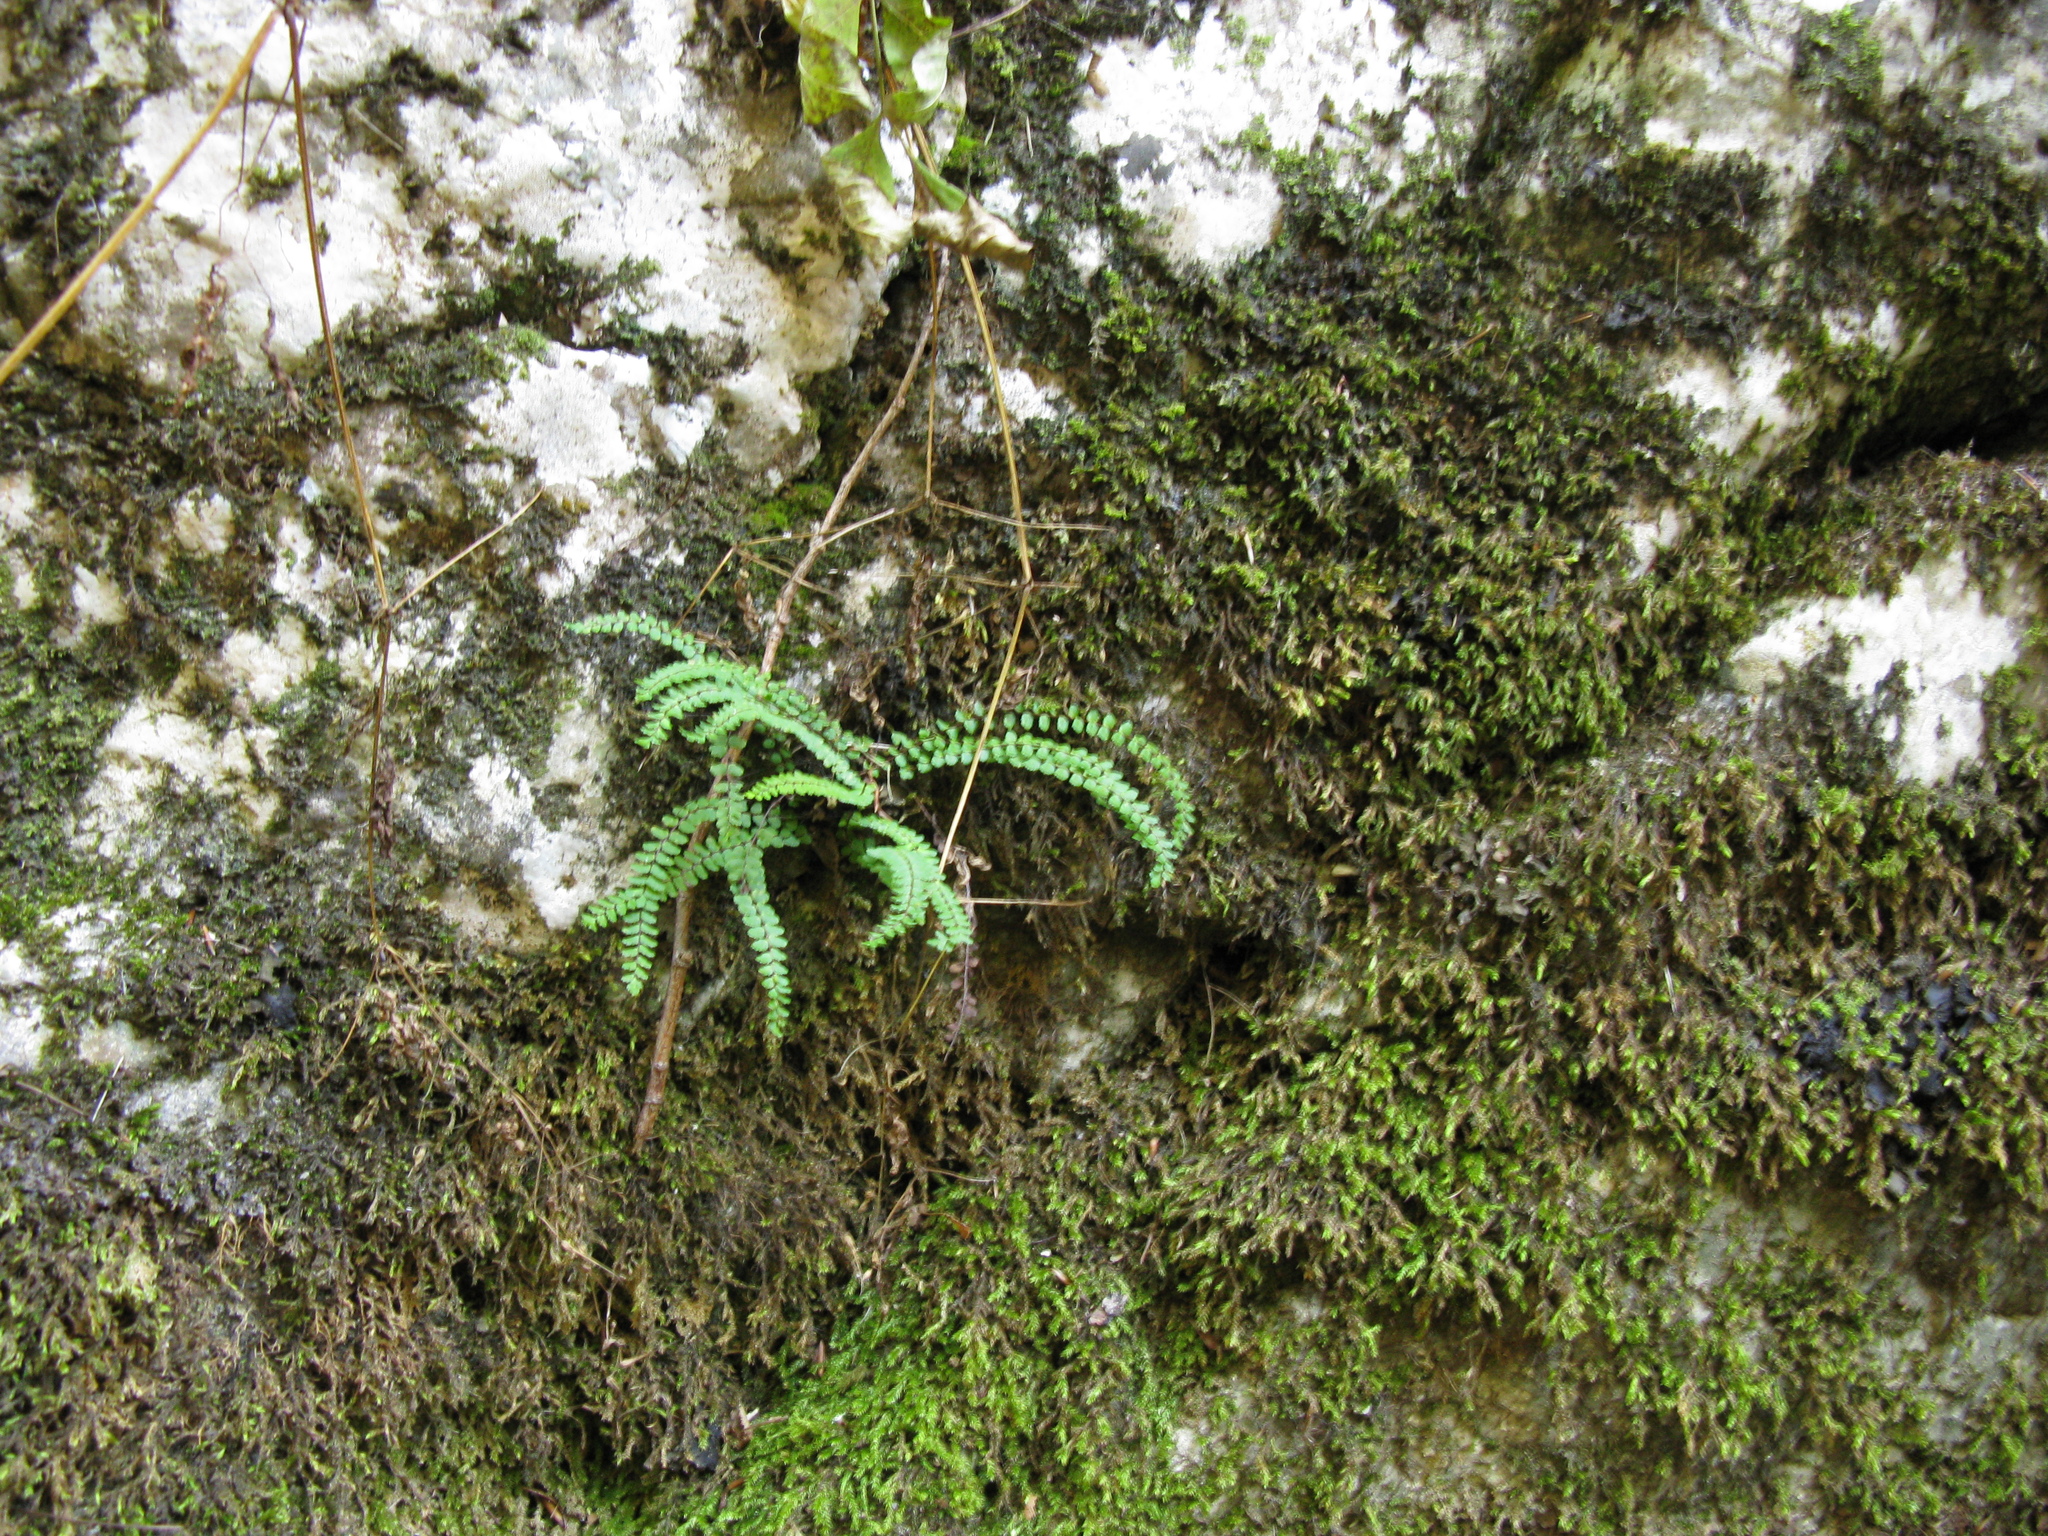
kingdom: Plantae
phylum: Tracheophyta
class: Polypodiopsida
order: Polypodiales
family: Aspleniaceae
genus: Asplenium
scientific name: Asplenium trichomanes
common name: Maidenhair spleenwort
